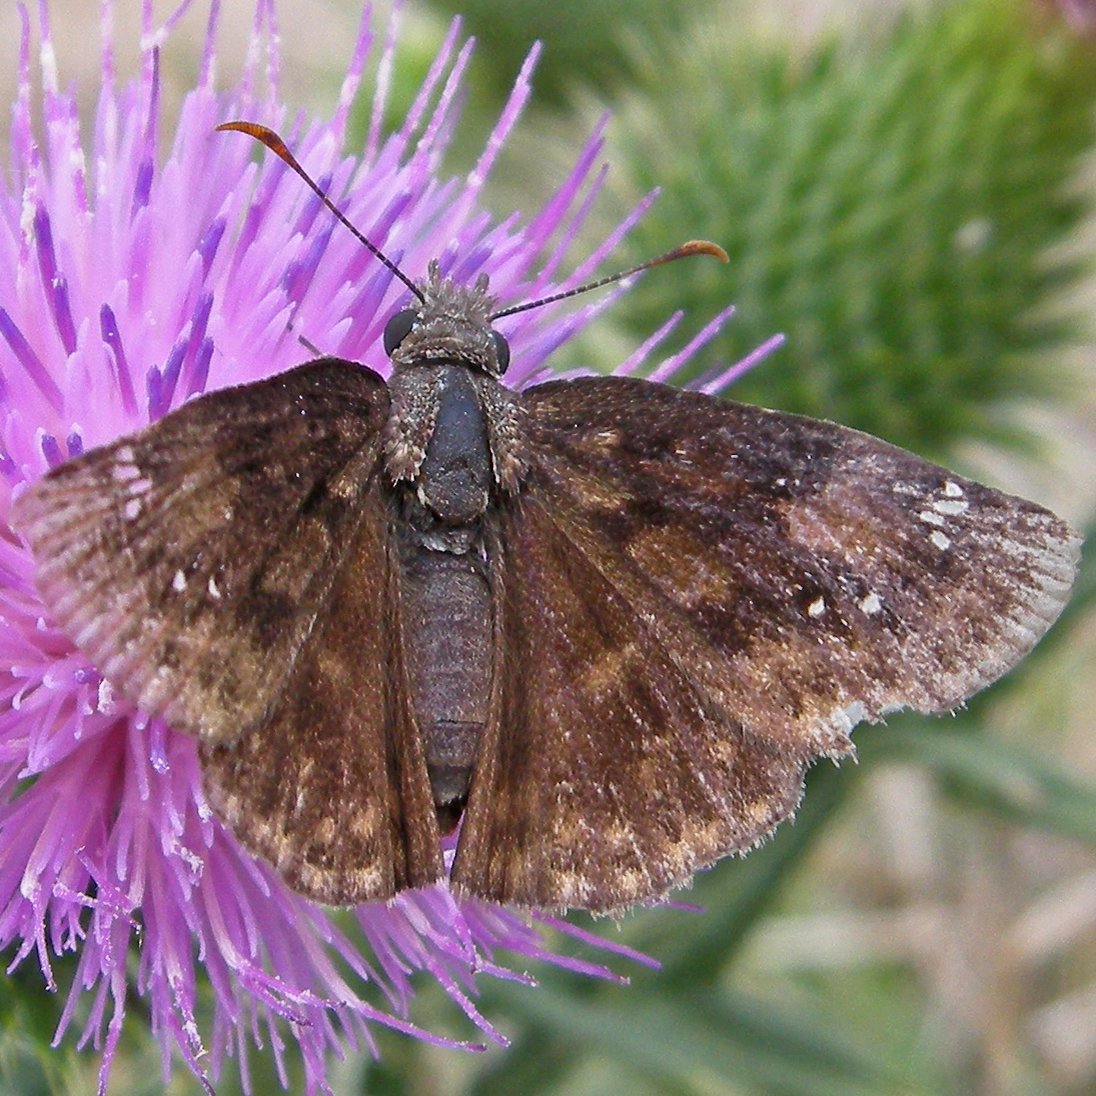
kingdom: Animalia
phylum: Arthropoda
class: Insecta
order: Lepidoptera
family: Hesperiidae
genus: Erynnis
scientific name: Erynnis baptisiae
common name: Wild indigo duskywing
